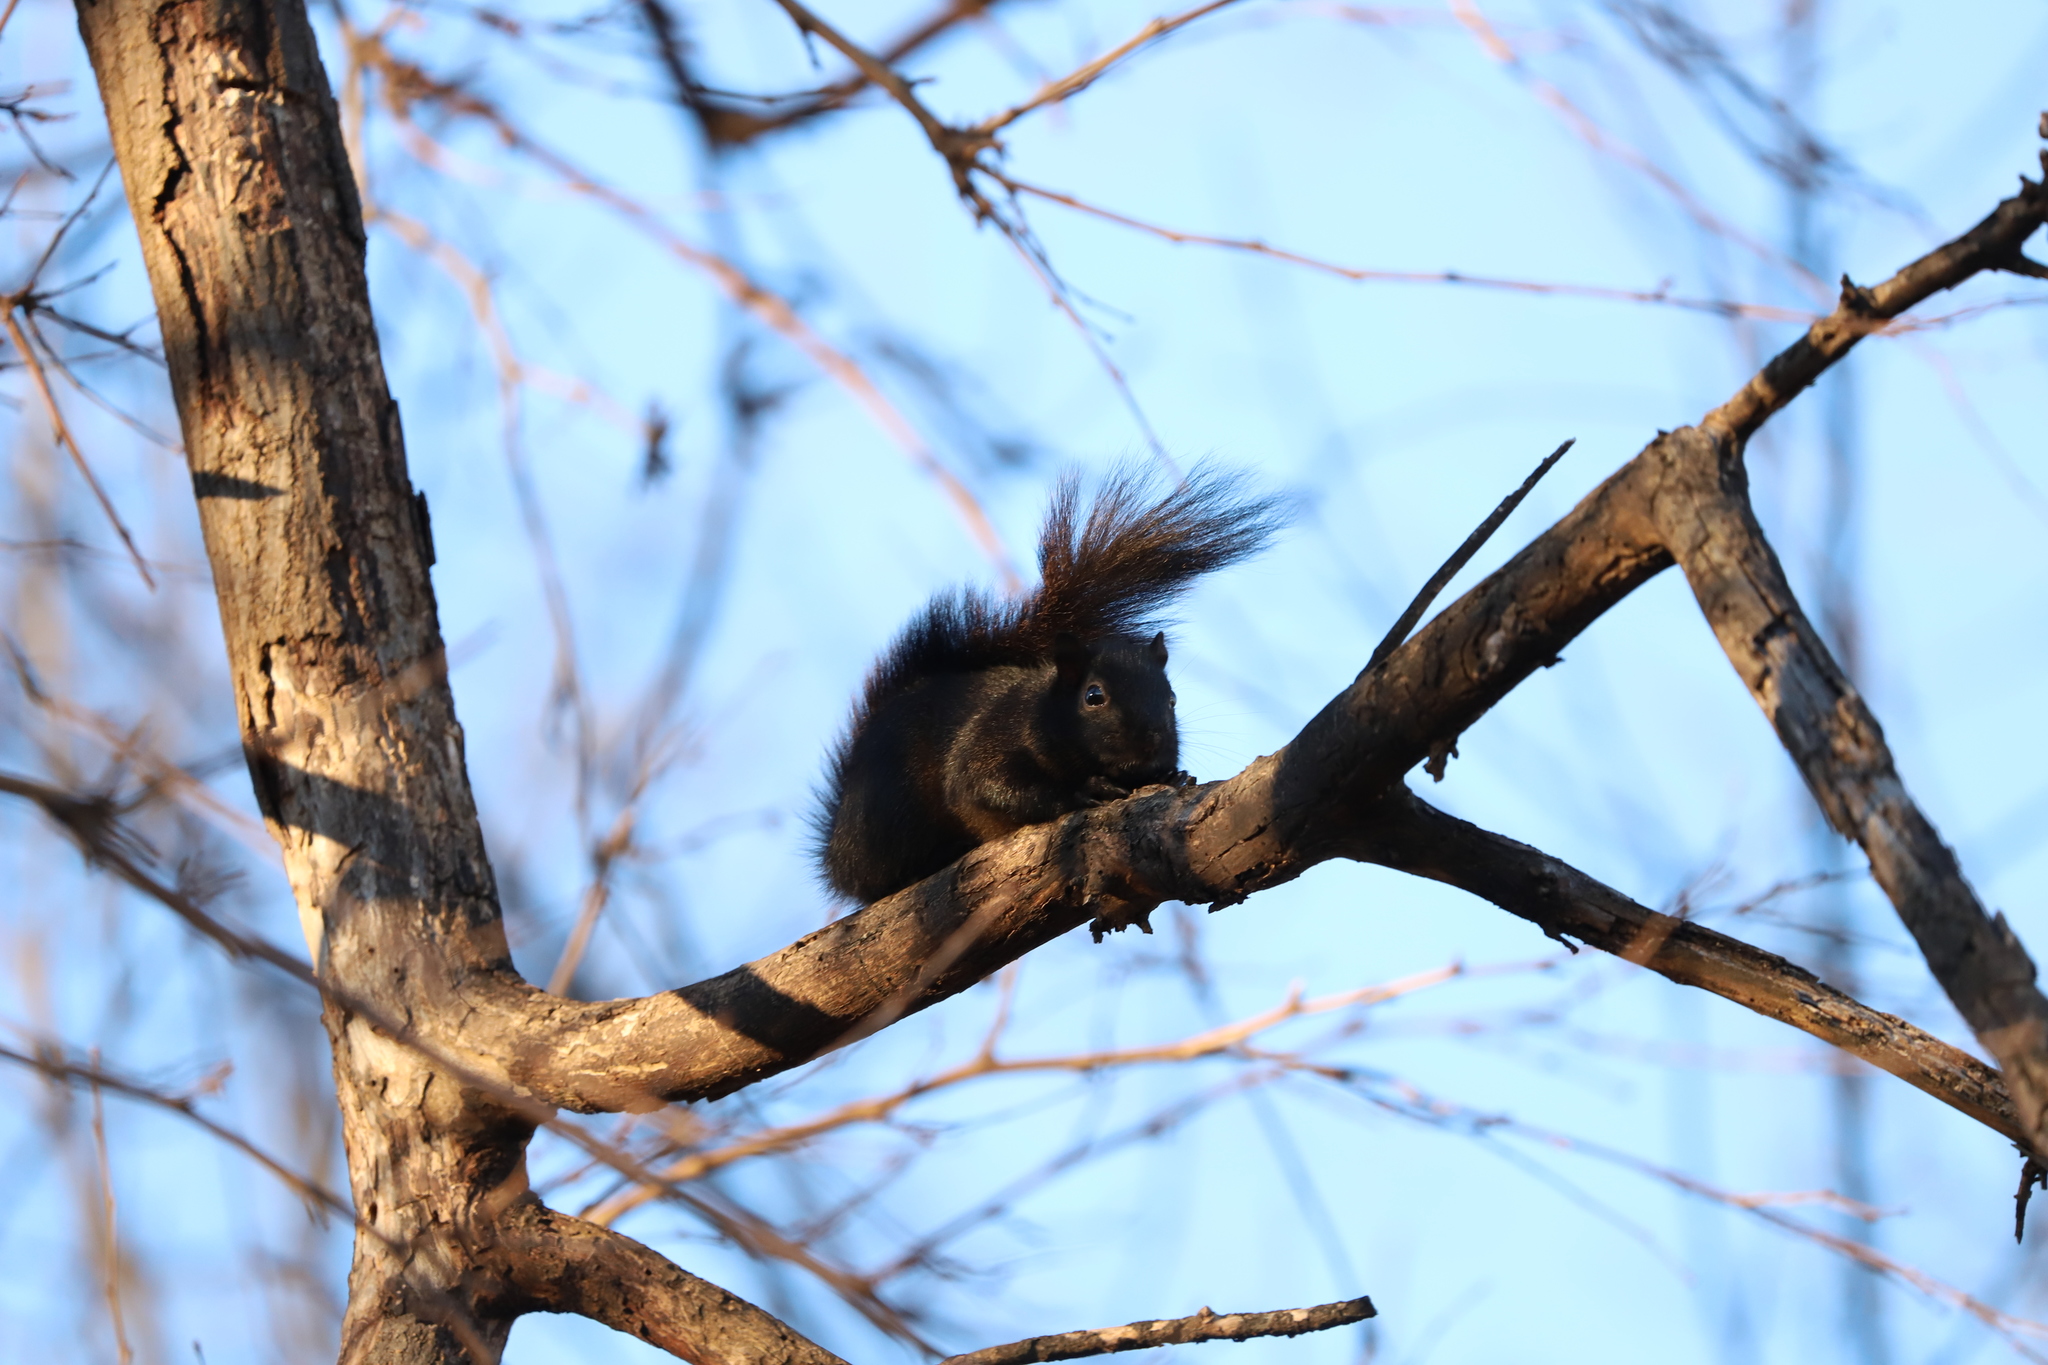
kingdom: Animalia
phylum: Chordata
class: Mammalia
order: Rodentia
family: Sciuridae
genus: Sciurus
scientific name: Sciurus carolinensis
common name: Eastern gray squirrel
